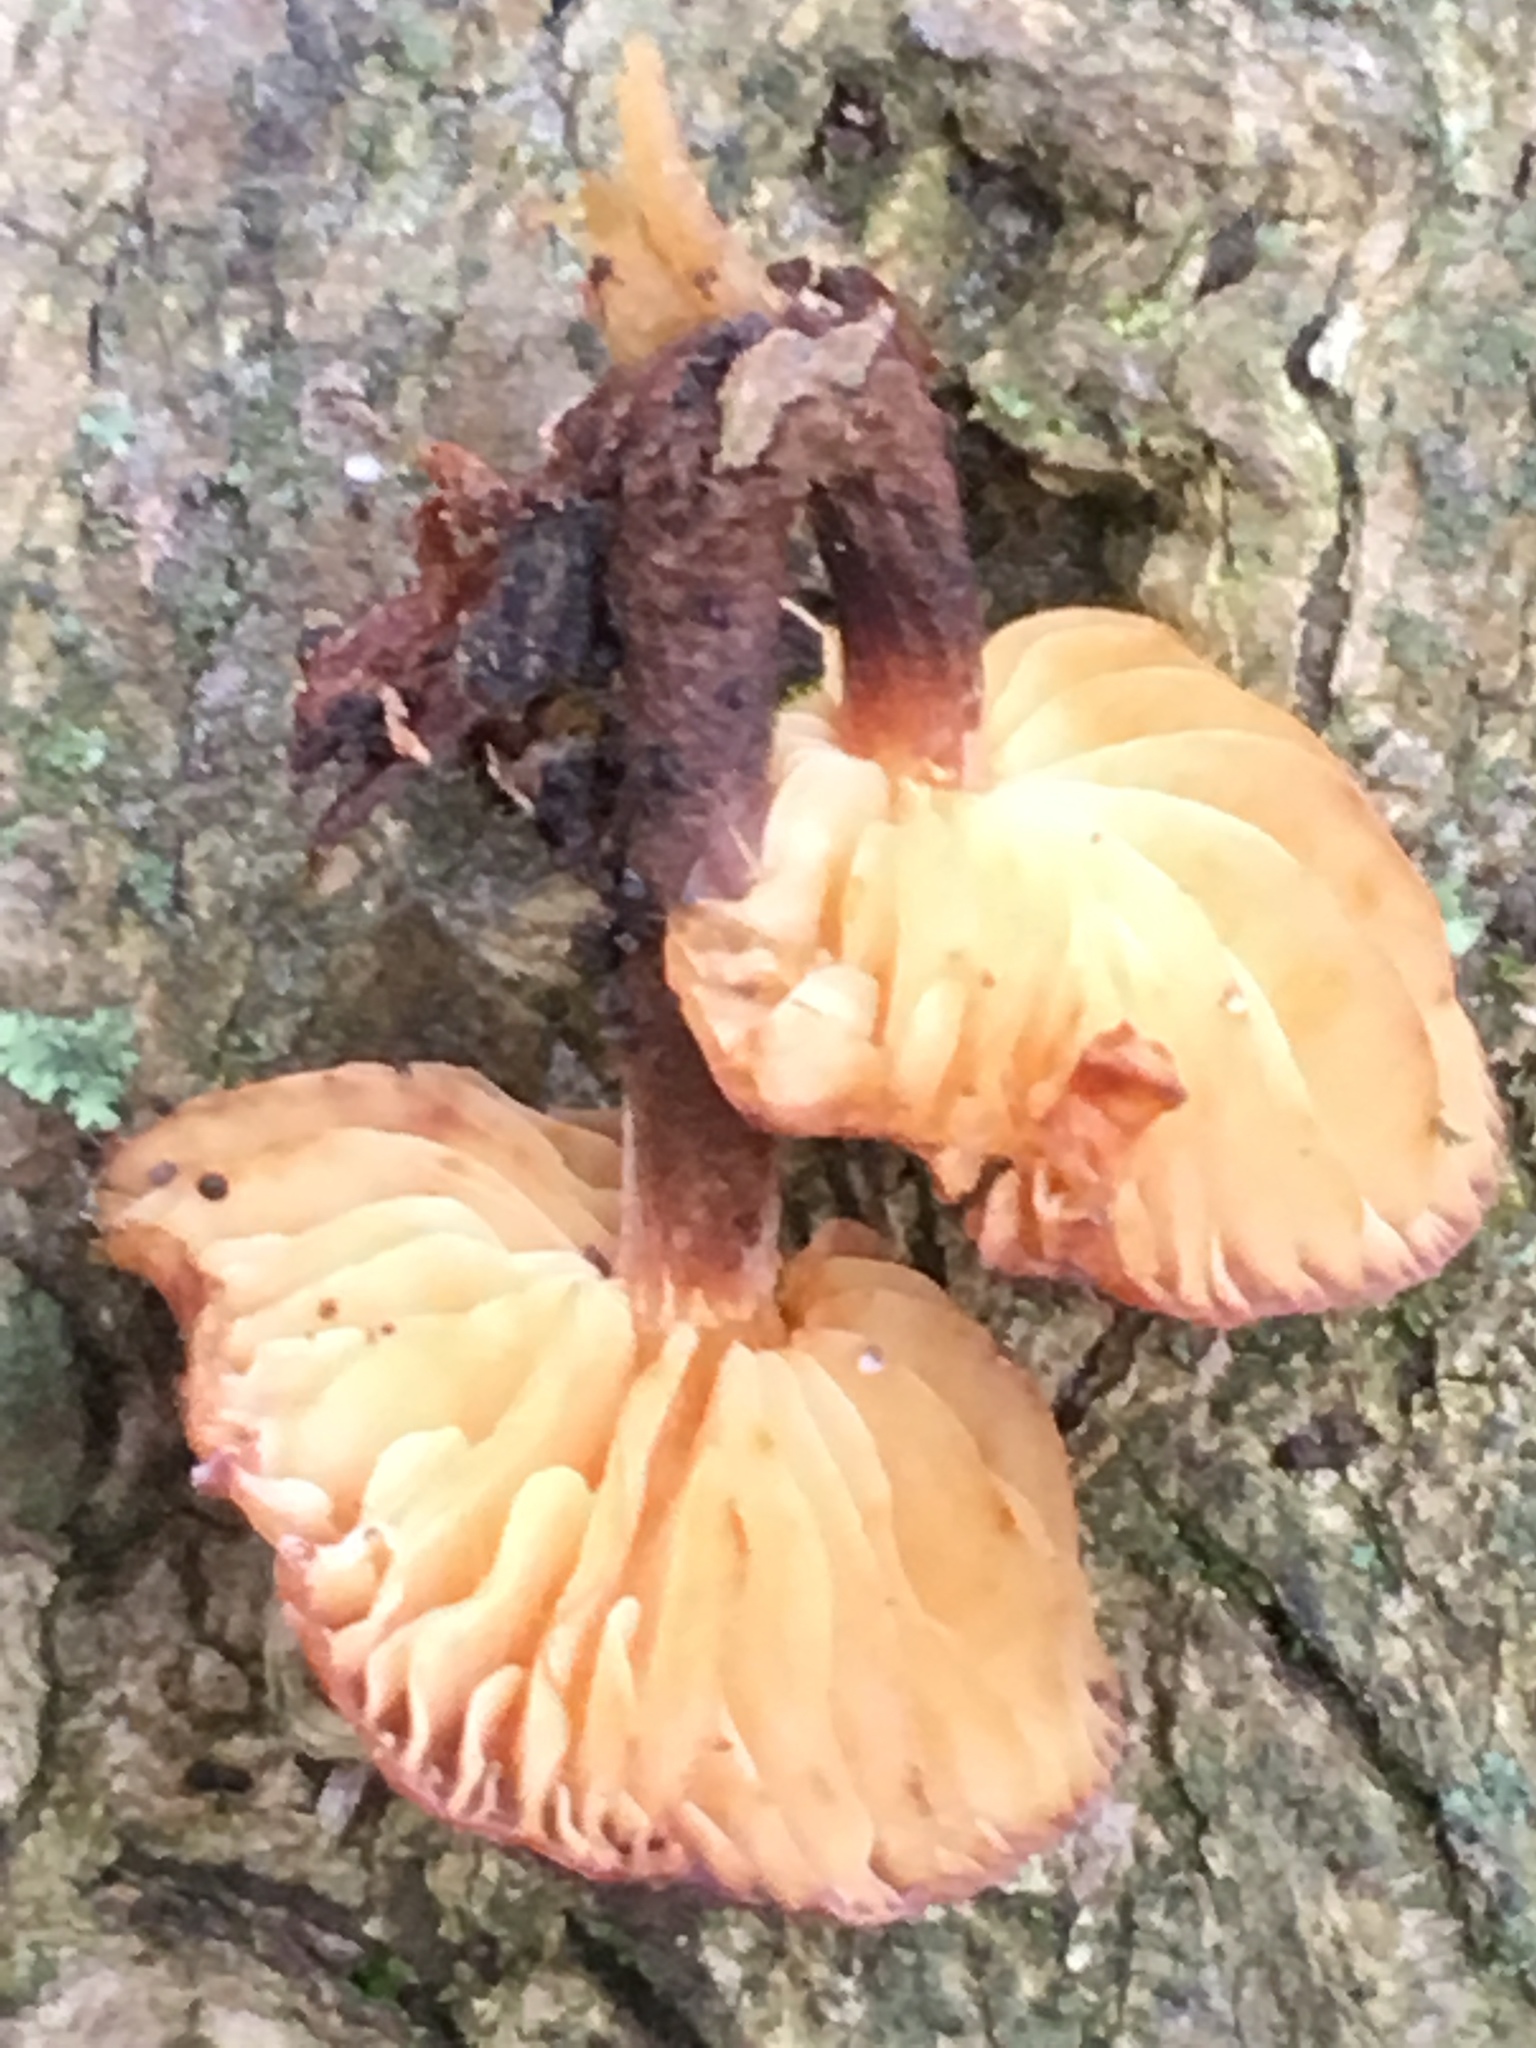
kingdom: Fungi
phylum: Basidiomycota
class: Agaricomycetes
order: Agaricales
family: Physalacriaceae
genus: Flammulina
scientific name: Flammulina
